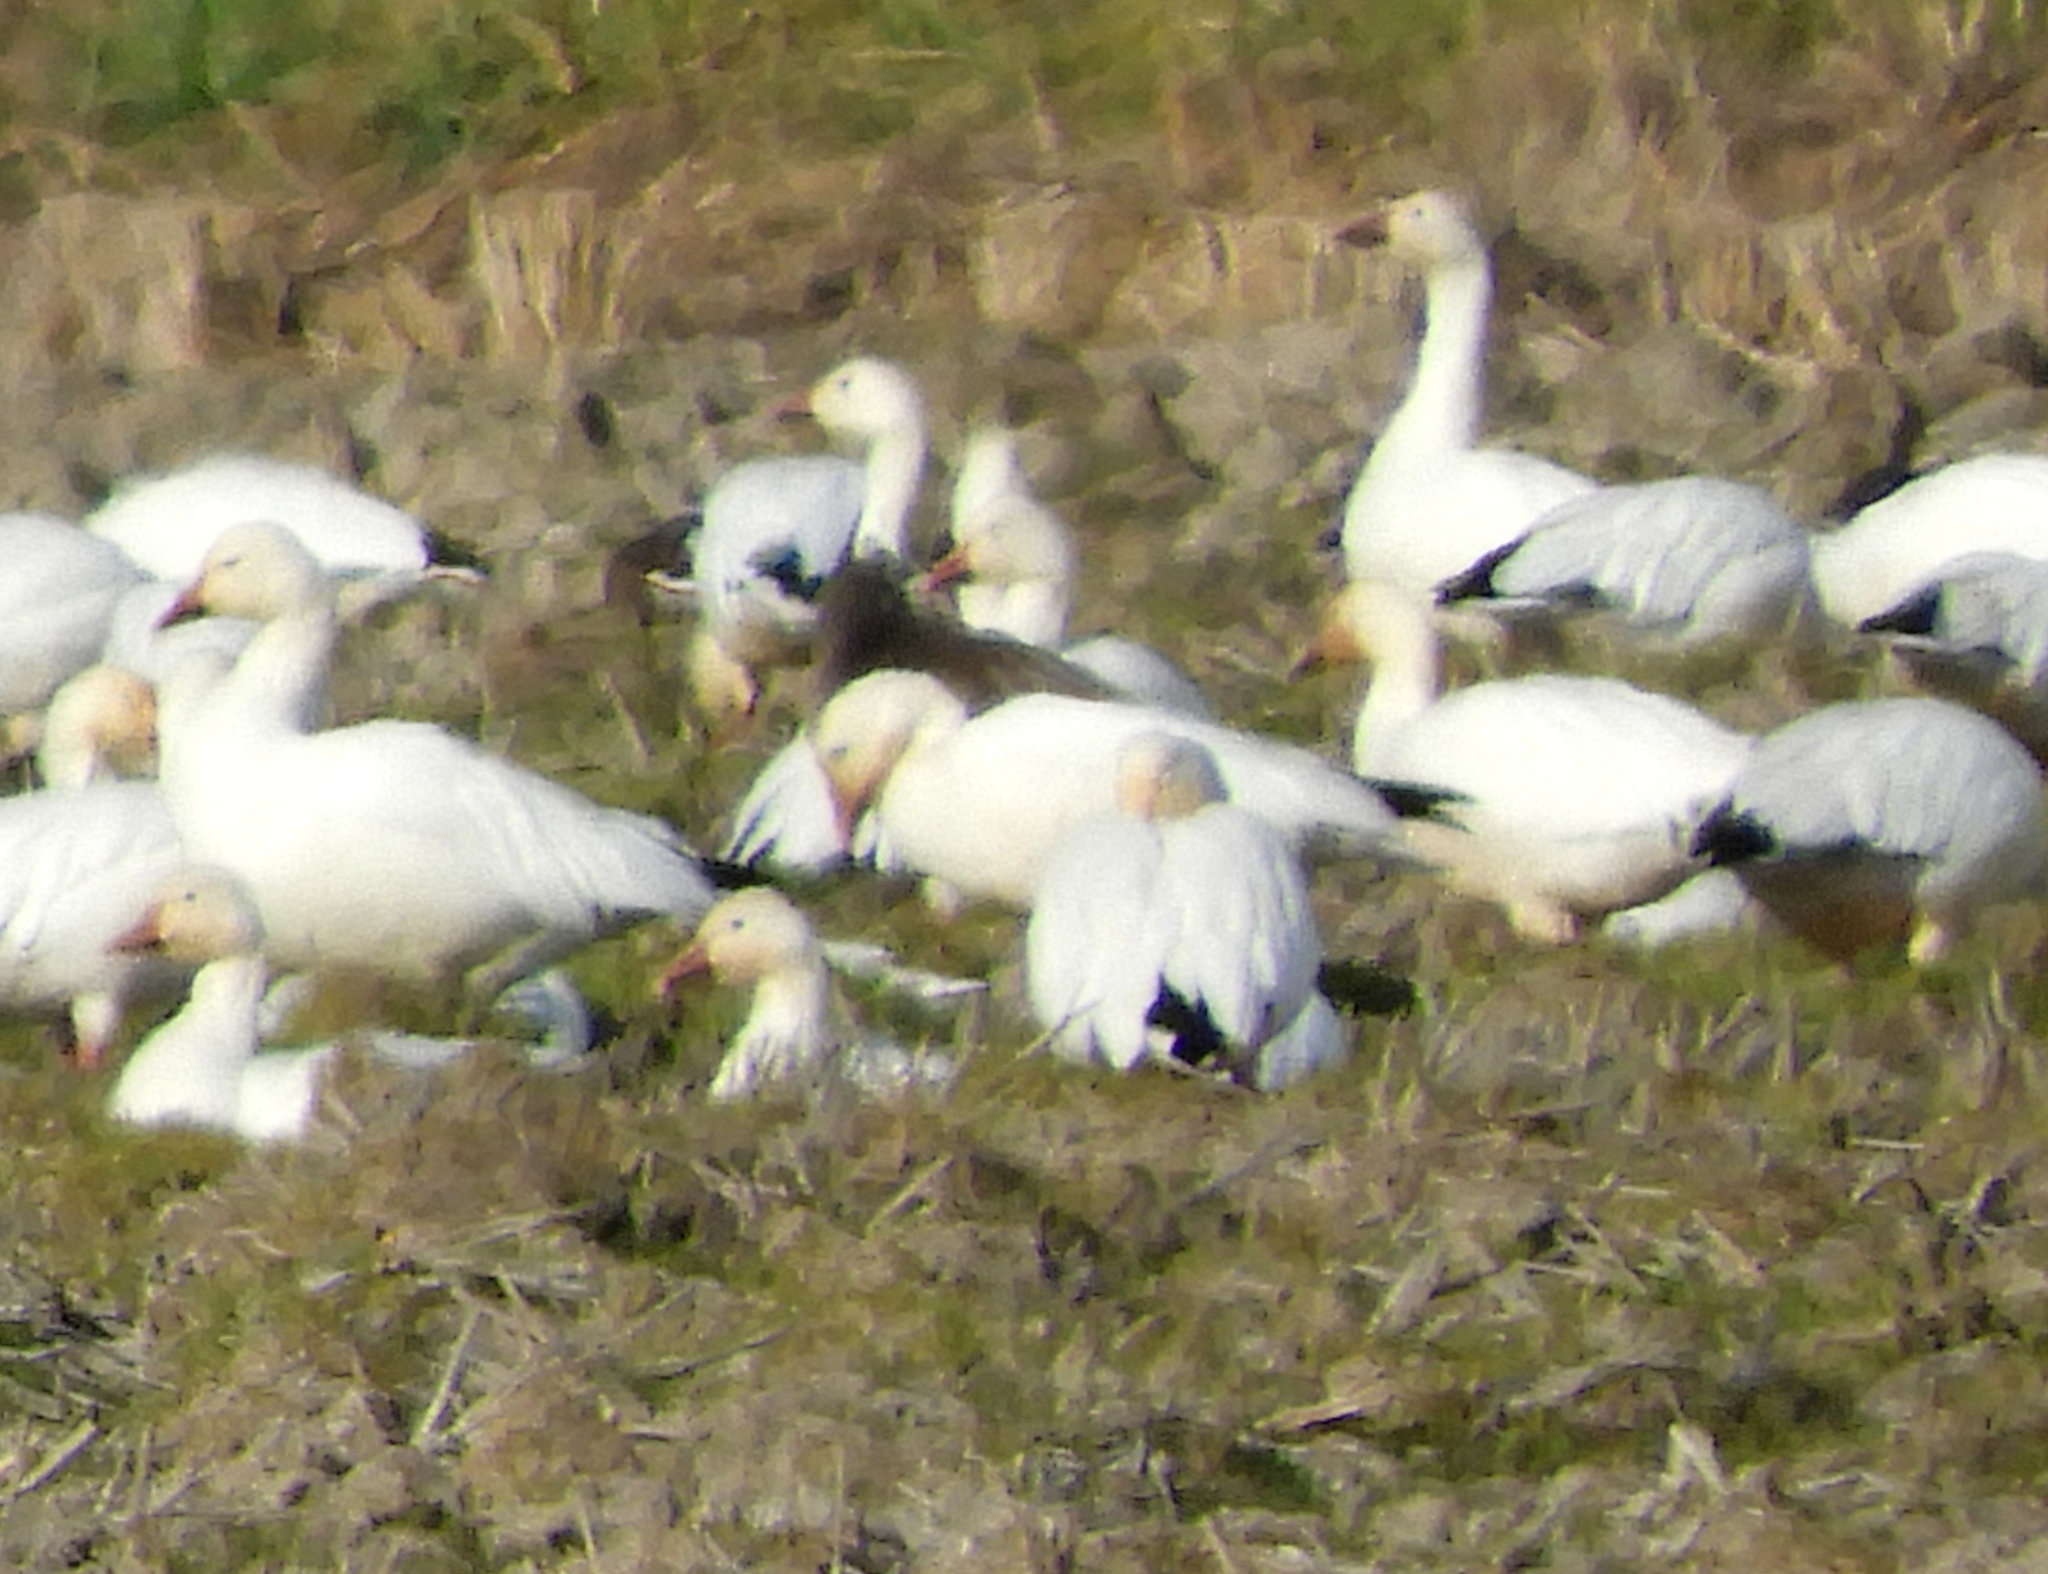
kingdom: Animalia
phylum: Chordata
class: Aves
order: Anseriformes
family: Anatidae
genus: Anser
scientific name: Anser caerulescens
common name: Snow goose
